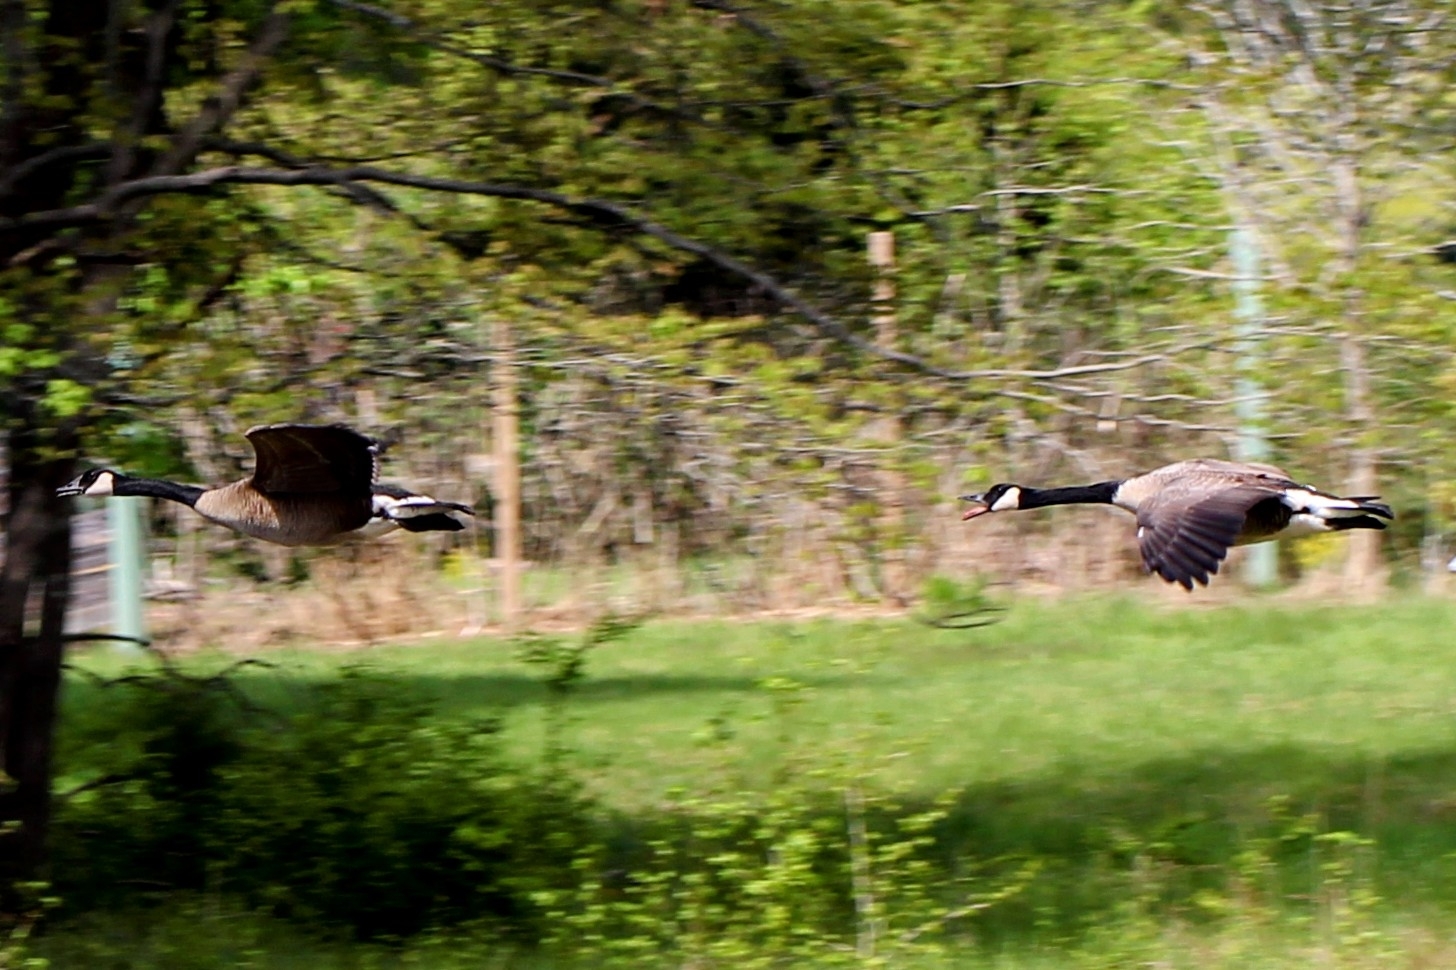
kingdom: Animalia
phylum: Chordata
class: Aves
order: Anseriformes
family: Anatidae
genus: Branta
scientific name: Branta canadensis
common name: Canada goose
